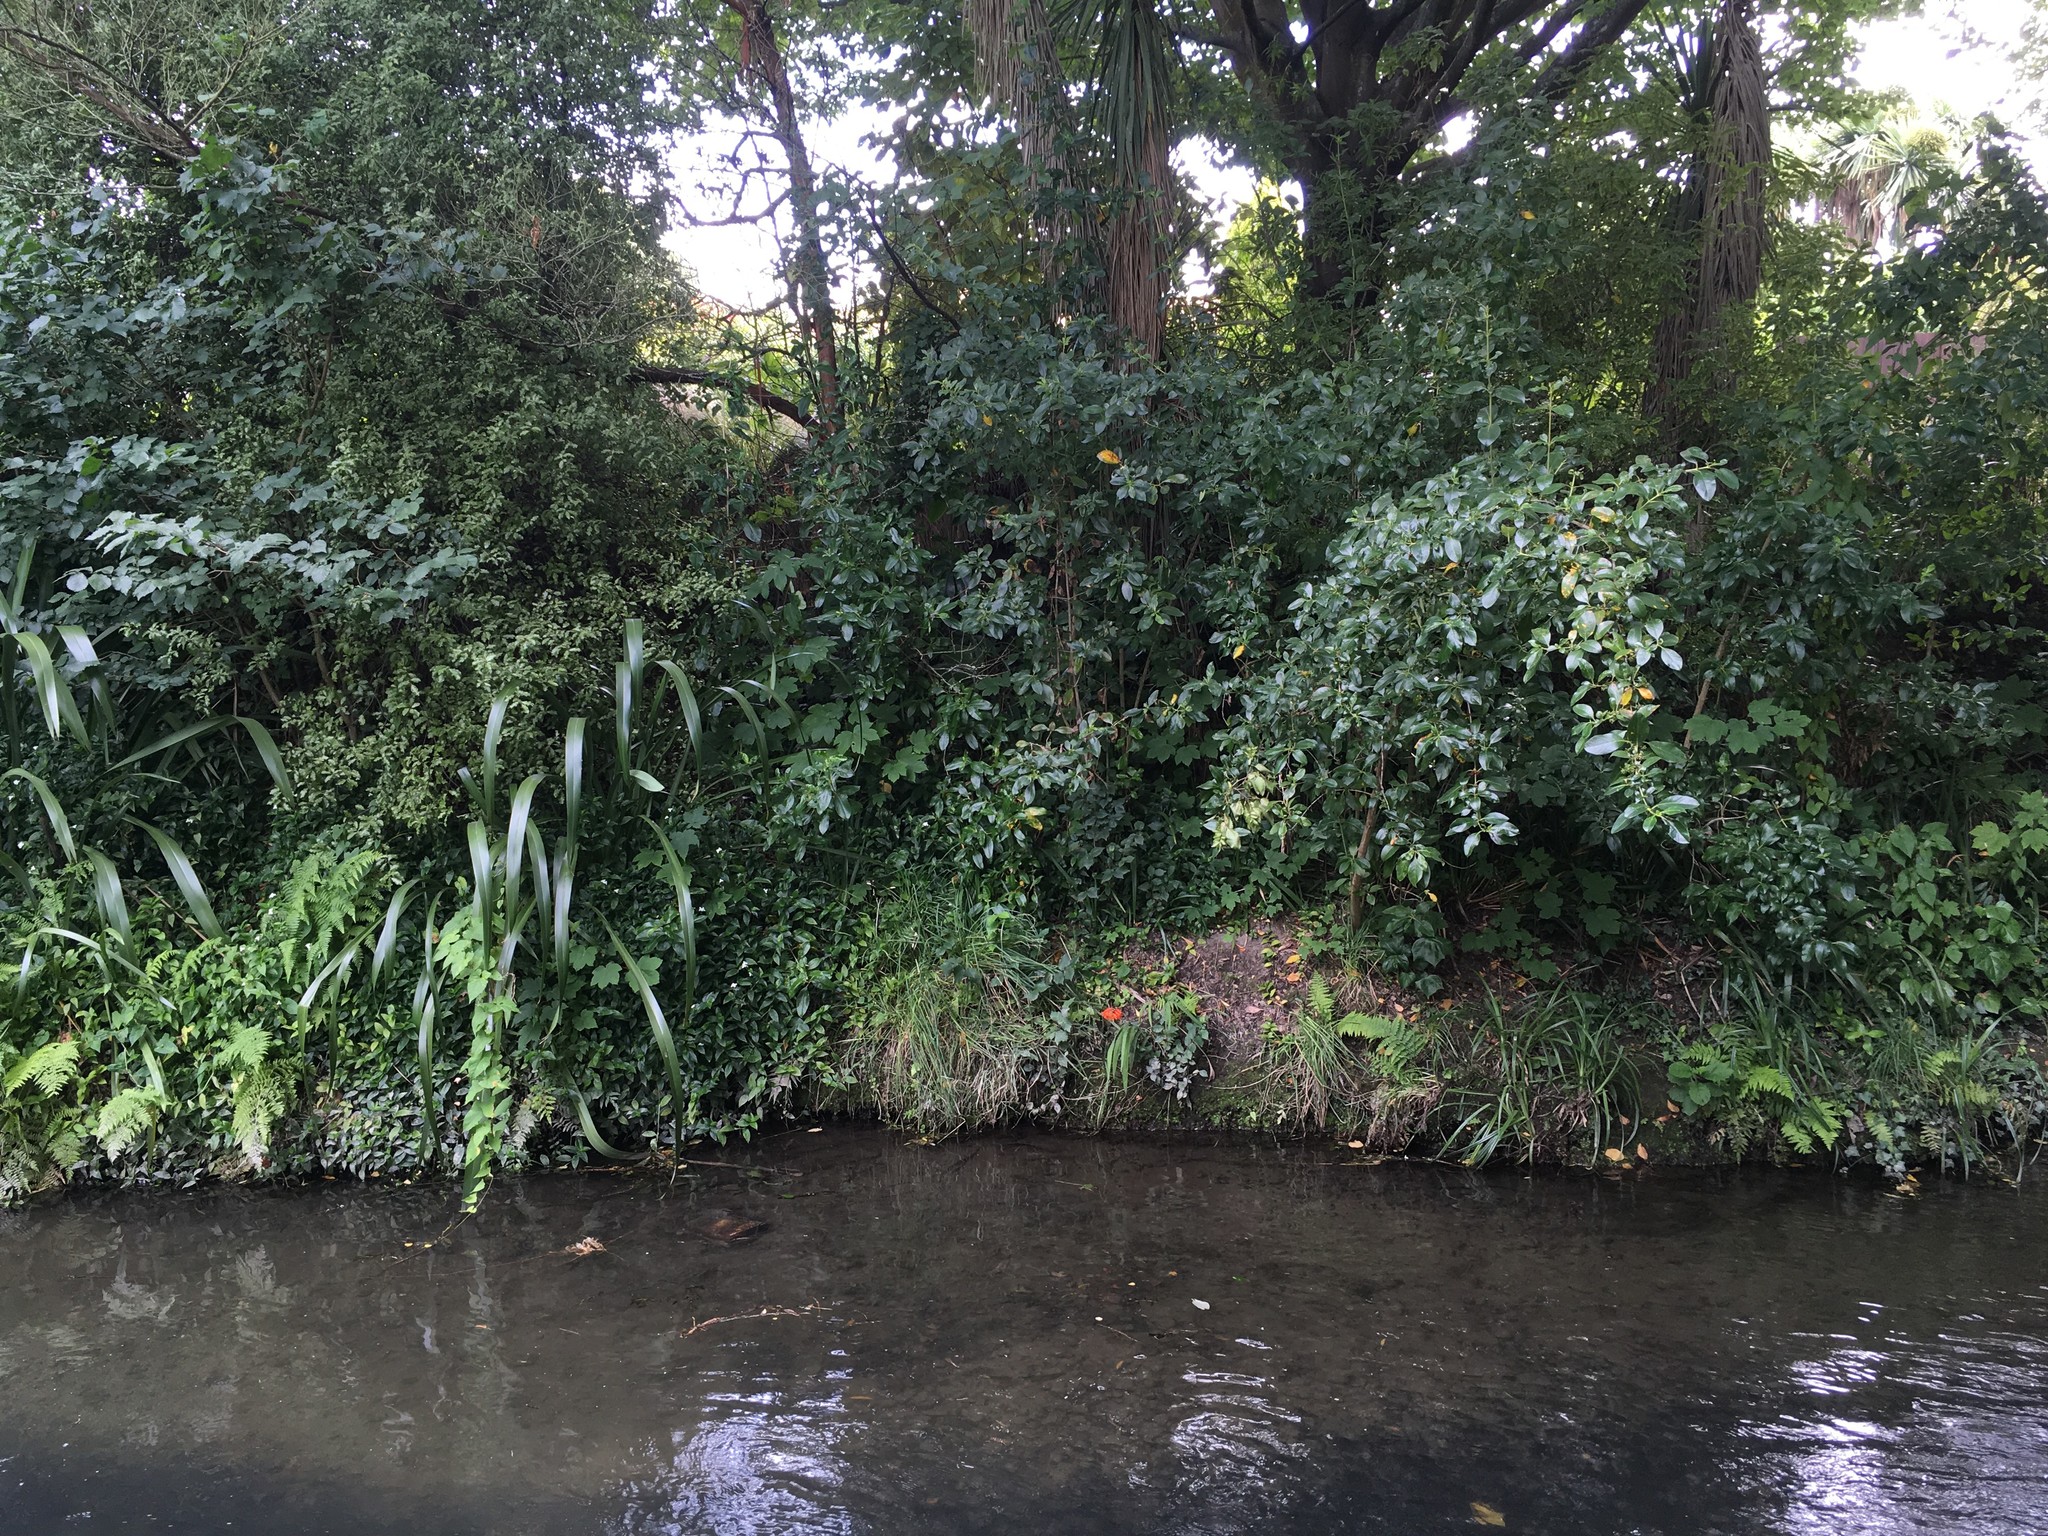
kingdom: Plantae
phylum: Tracheophyta
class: Liliopsida
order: Asparagales
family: Iridaceae
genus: Crocosmia
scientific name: Crocosmia crocosmiiflora
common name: Montbretia
